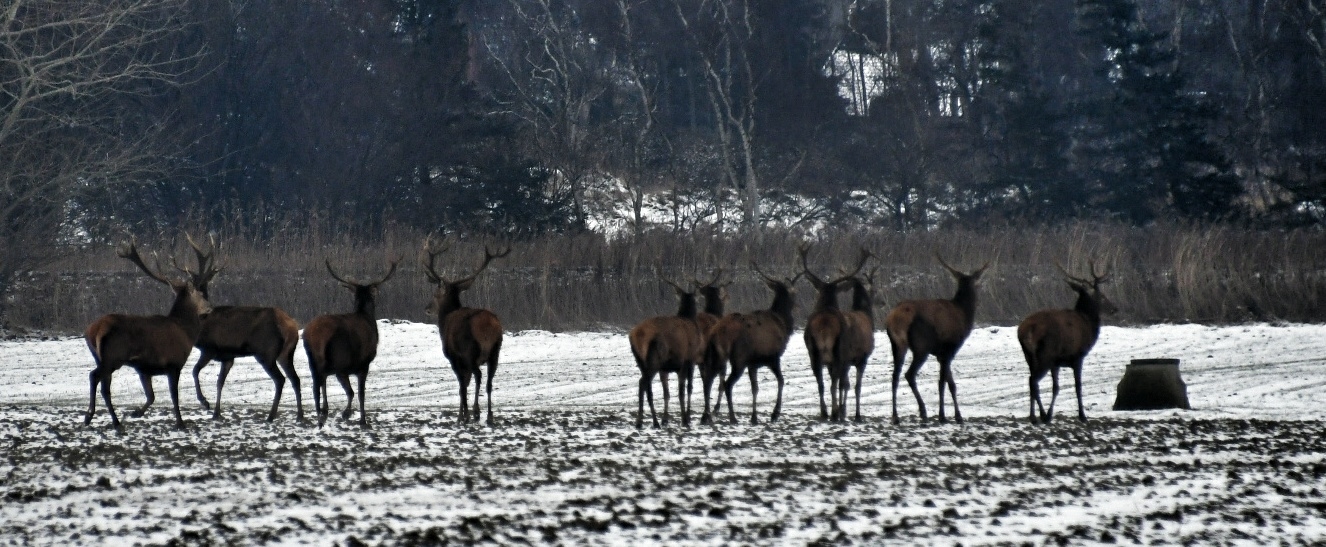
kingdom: Animalia
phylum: Chordata
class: Mammalia
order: Artiodactyla
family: Cervidae
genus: Cervus
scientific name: Cervus elaphus
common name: Red deer
